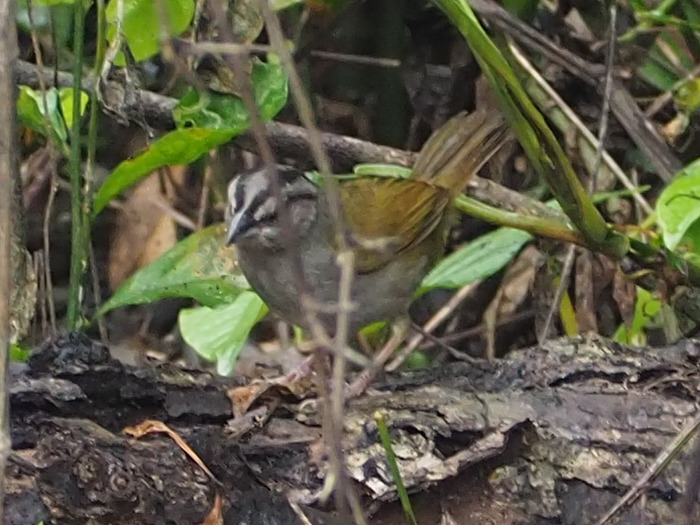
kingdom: Animalia
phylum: Chordata
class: Aves
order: Passeriformes
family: Passerellidae
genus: Arremonops
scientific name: Arremonops chloronotus
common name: Green-backed sparrow
